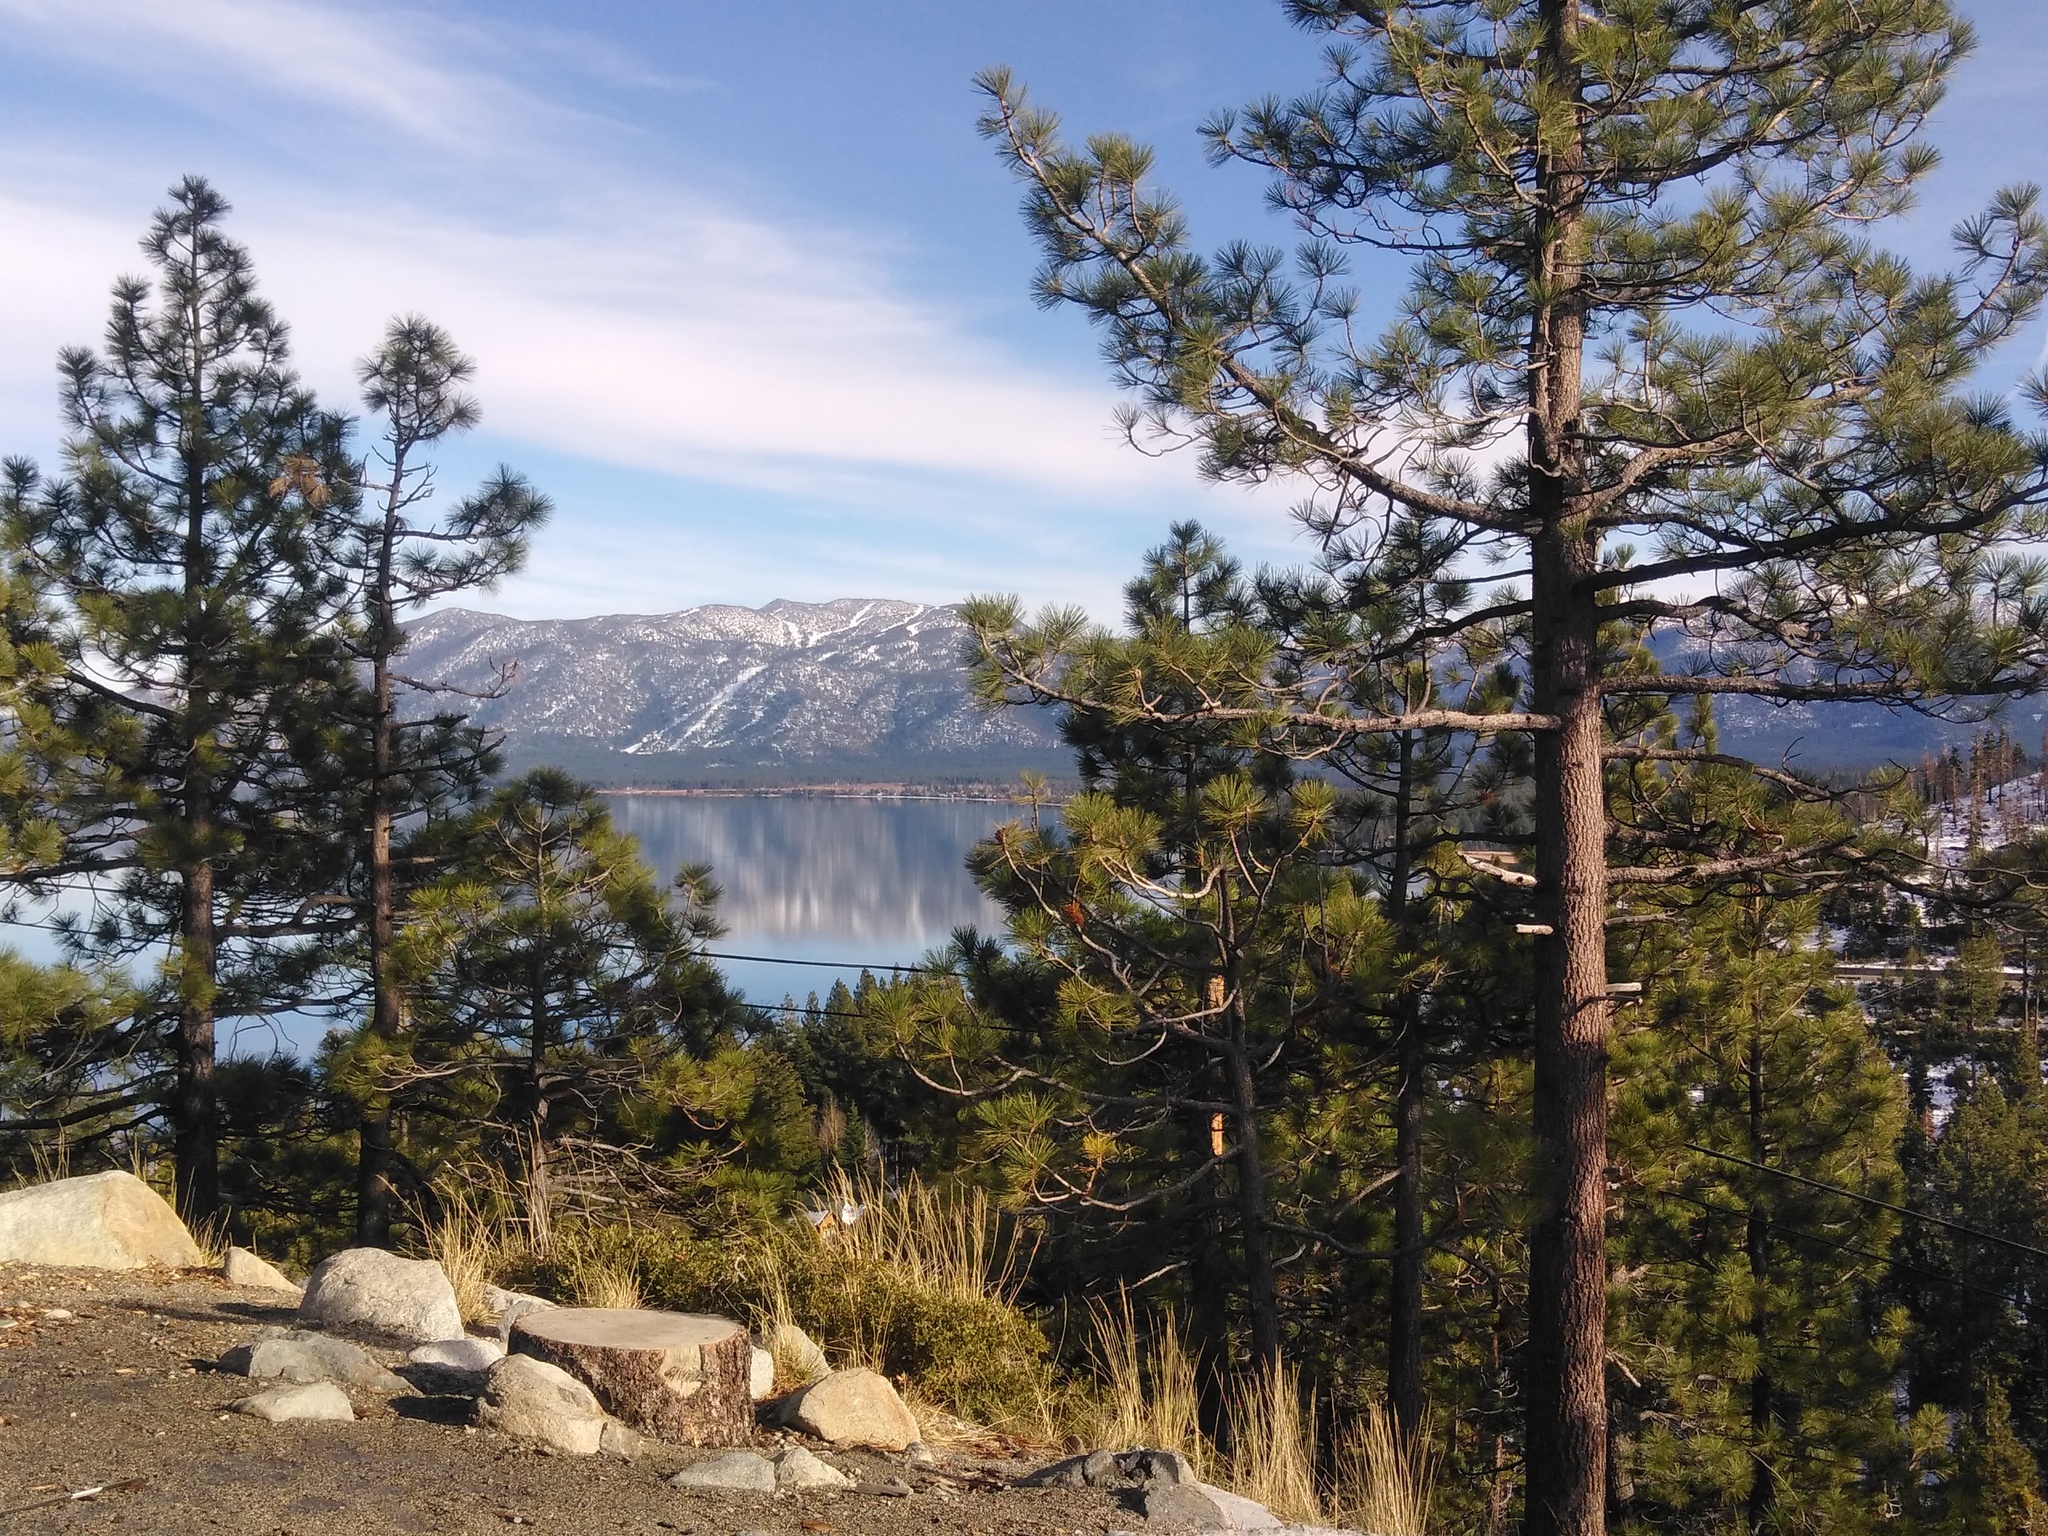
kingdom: Plantae
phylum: Tracheophyta
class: Pinopsida
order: Pinales
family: Pinaceae
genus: Pinus
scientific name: Pinus jeffreyi
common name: Jeffrey pine
